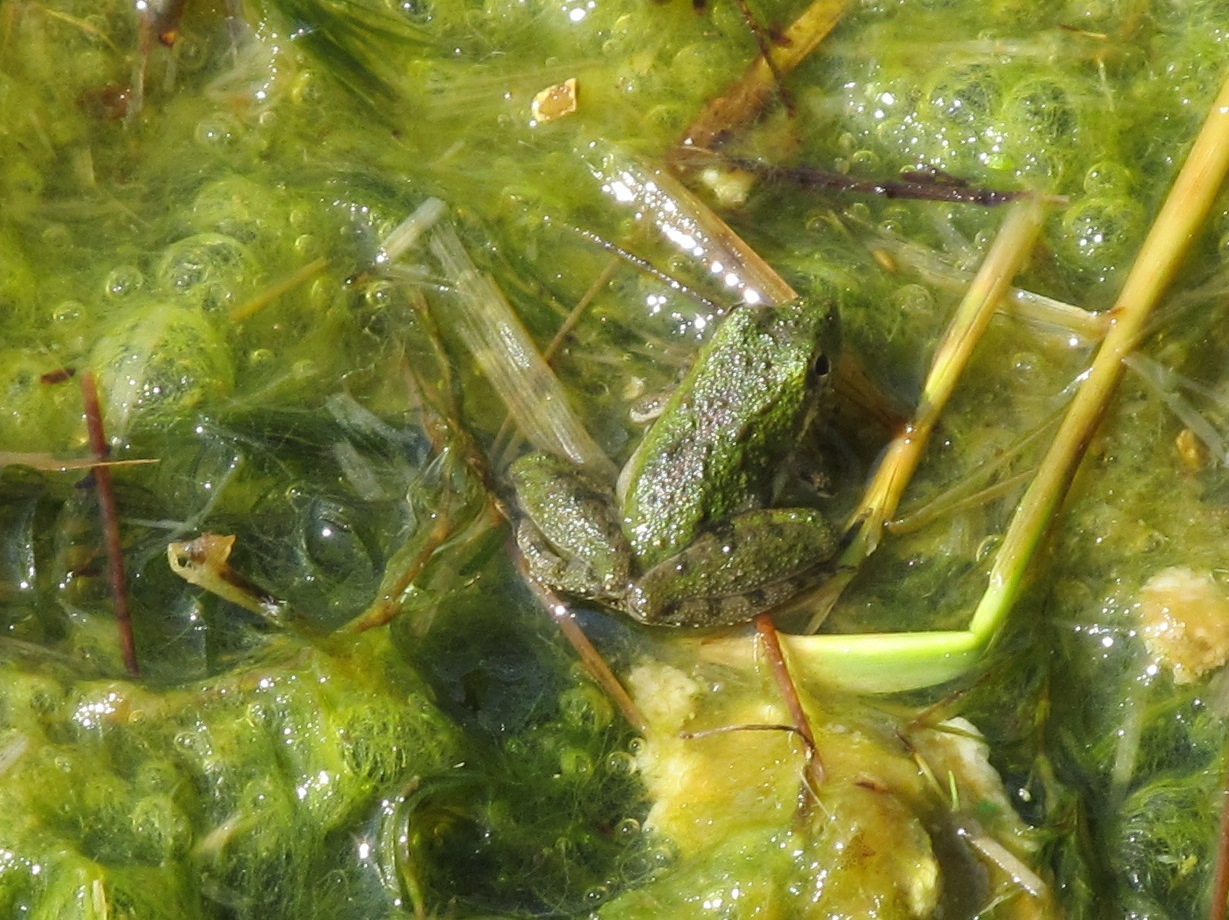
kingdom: Animalia
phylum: Chordata
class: Amphibia
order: Anura
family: Hylidae
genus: Acris
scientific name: Acris blanchardi
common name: Blanchard's cricket frog
